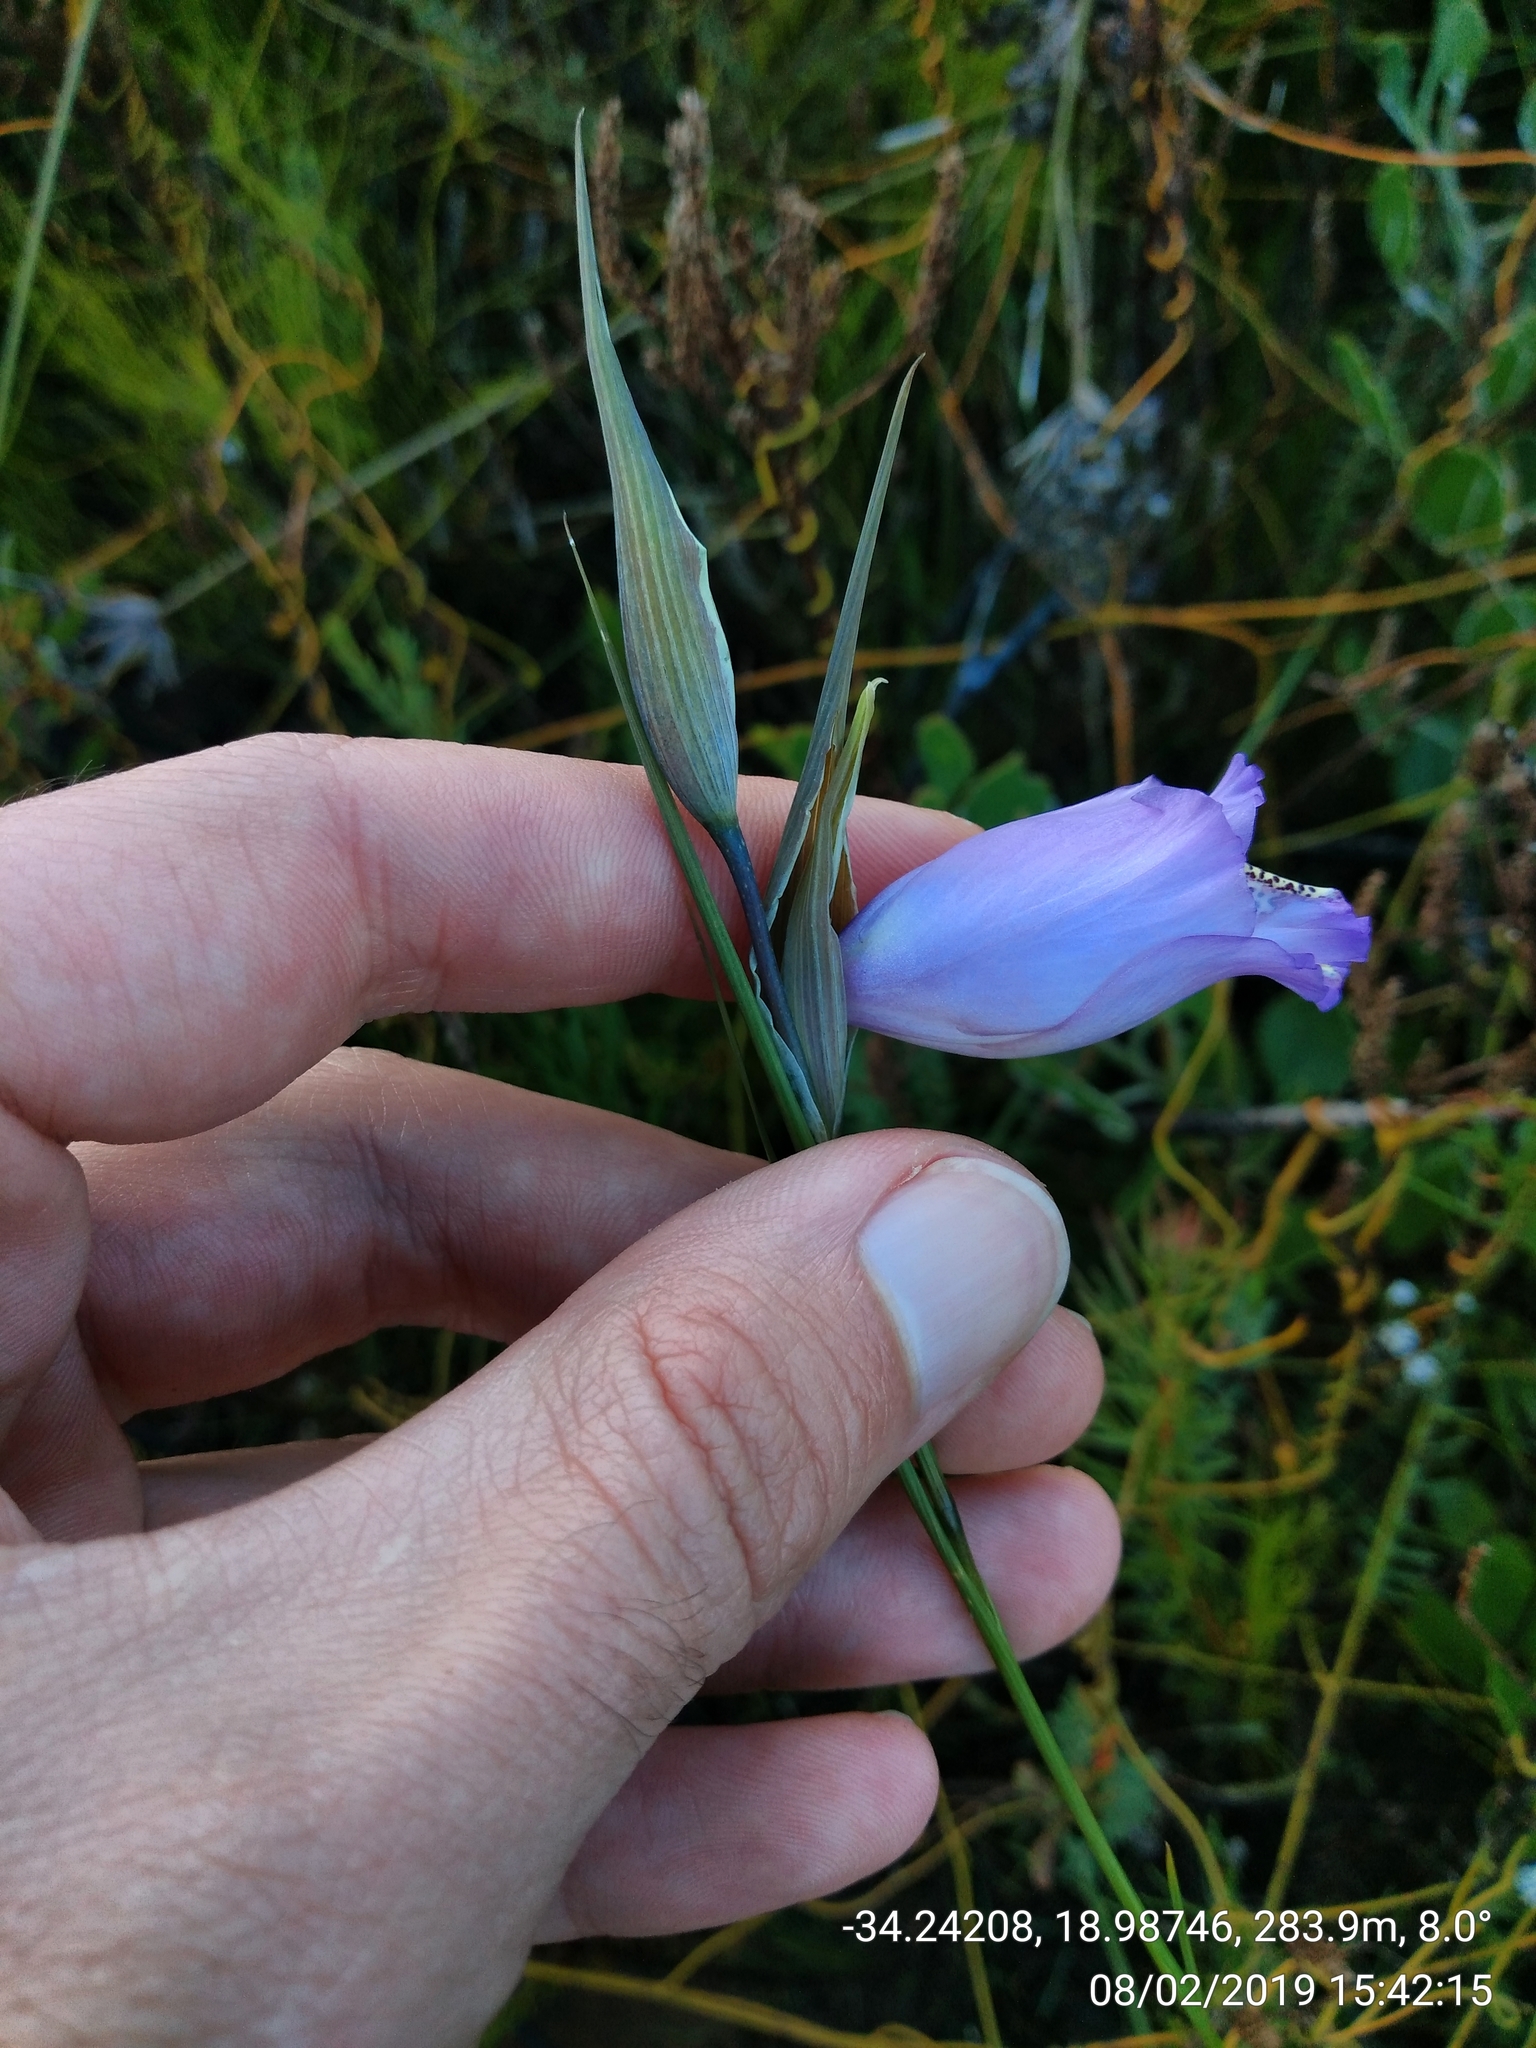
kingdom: Plantae
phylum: Tracheophyta
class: Liliopsida
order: Asparagales
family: Iridaceae
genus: Gladiolus
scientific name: Gladiolus bullatus
